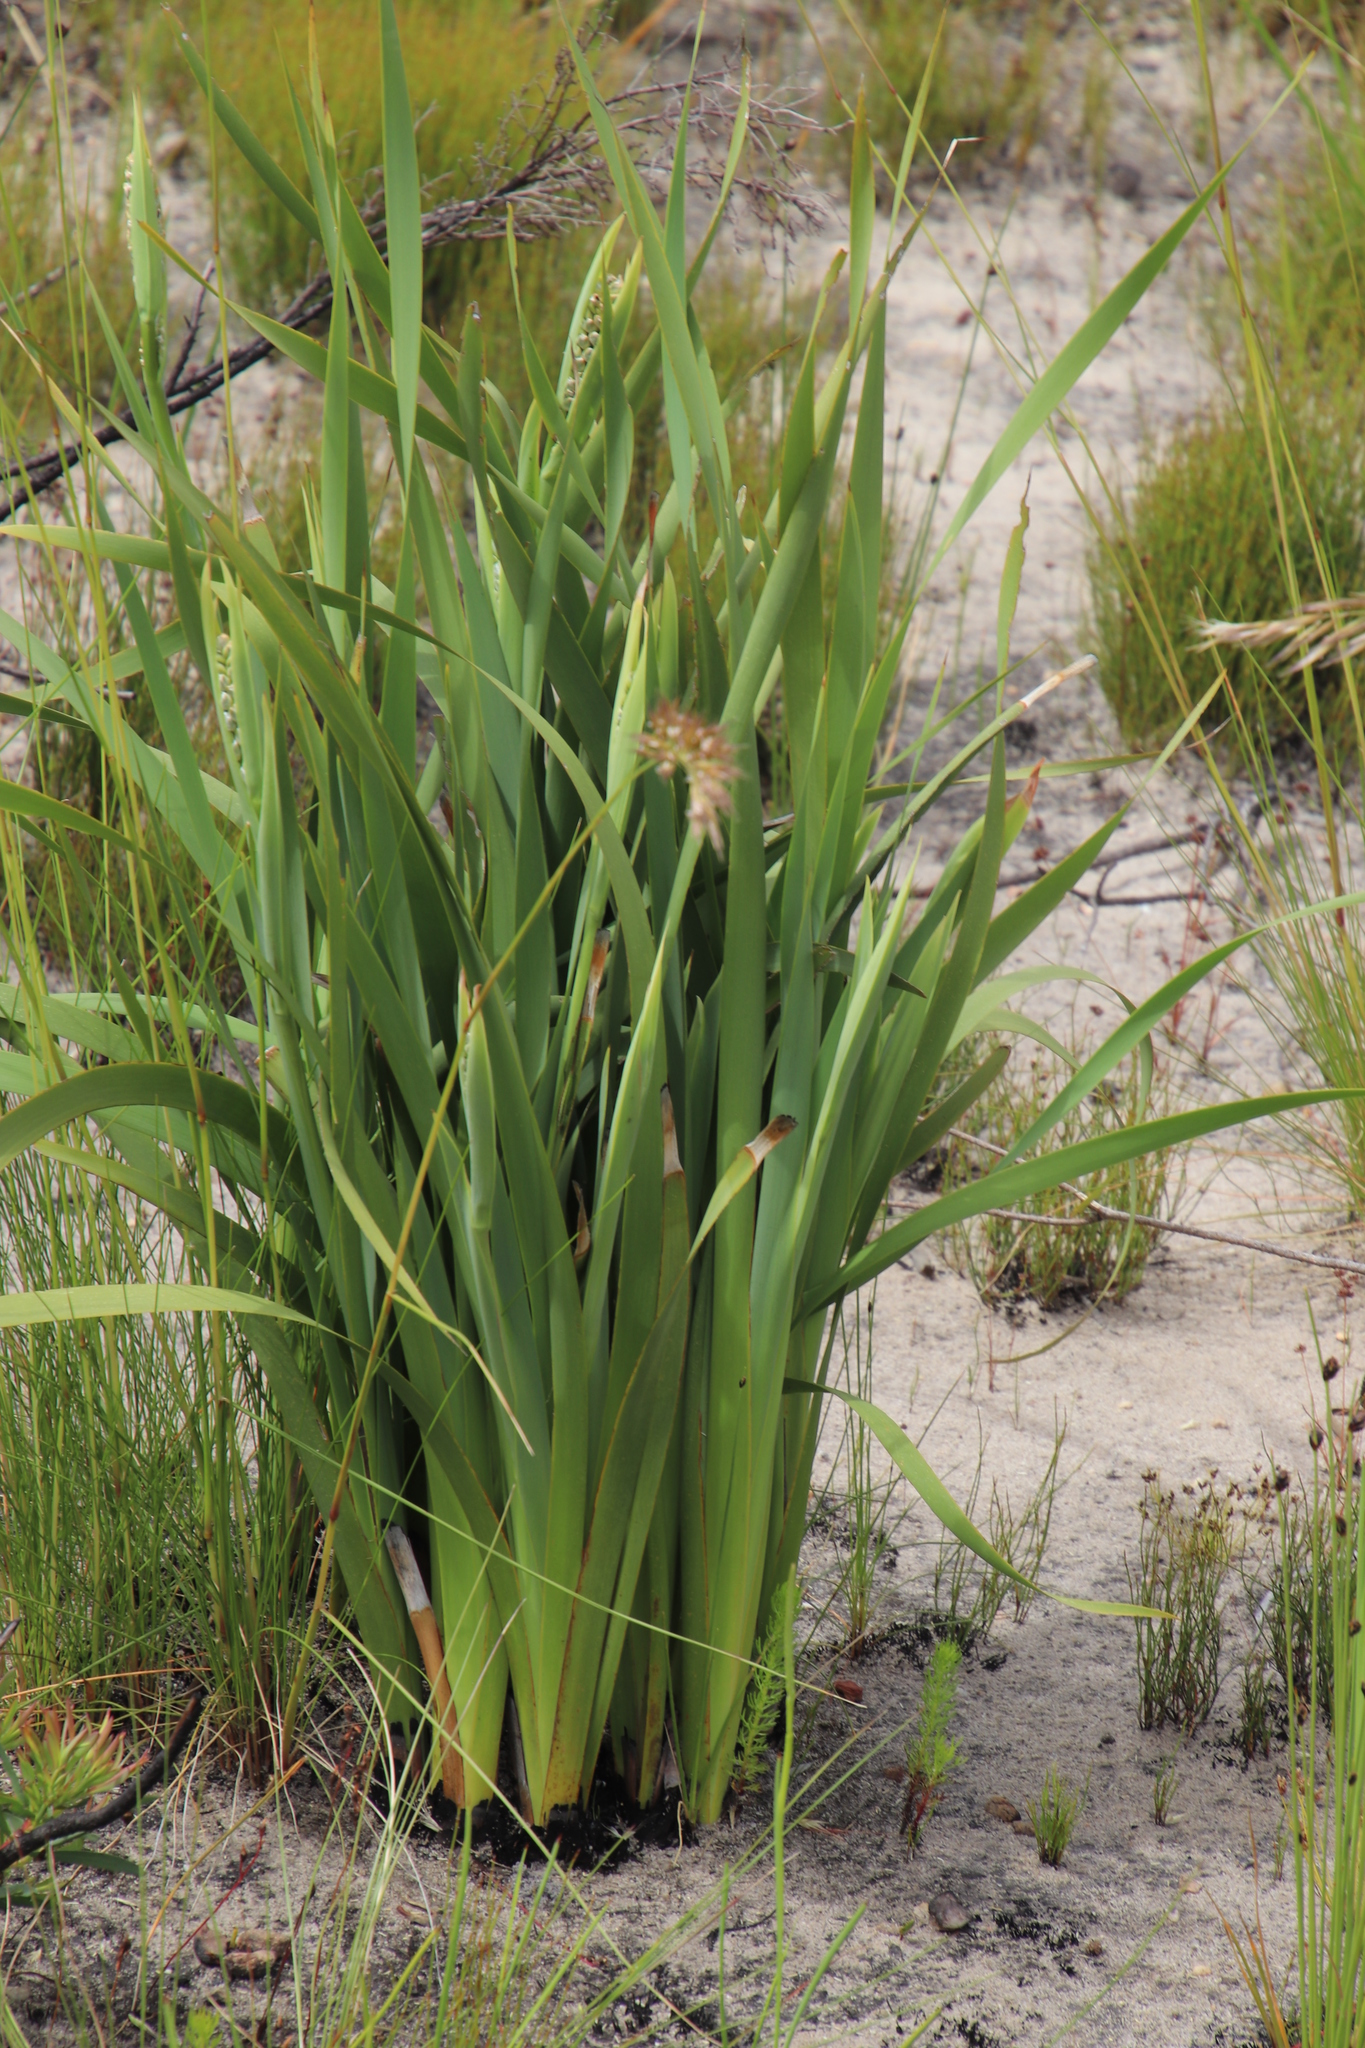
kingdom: Plantae
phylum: Tracheophyta
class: Liliopsida
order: Asparagales
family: Iridaceae
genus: Aristea
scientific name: Aristea bakeri
